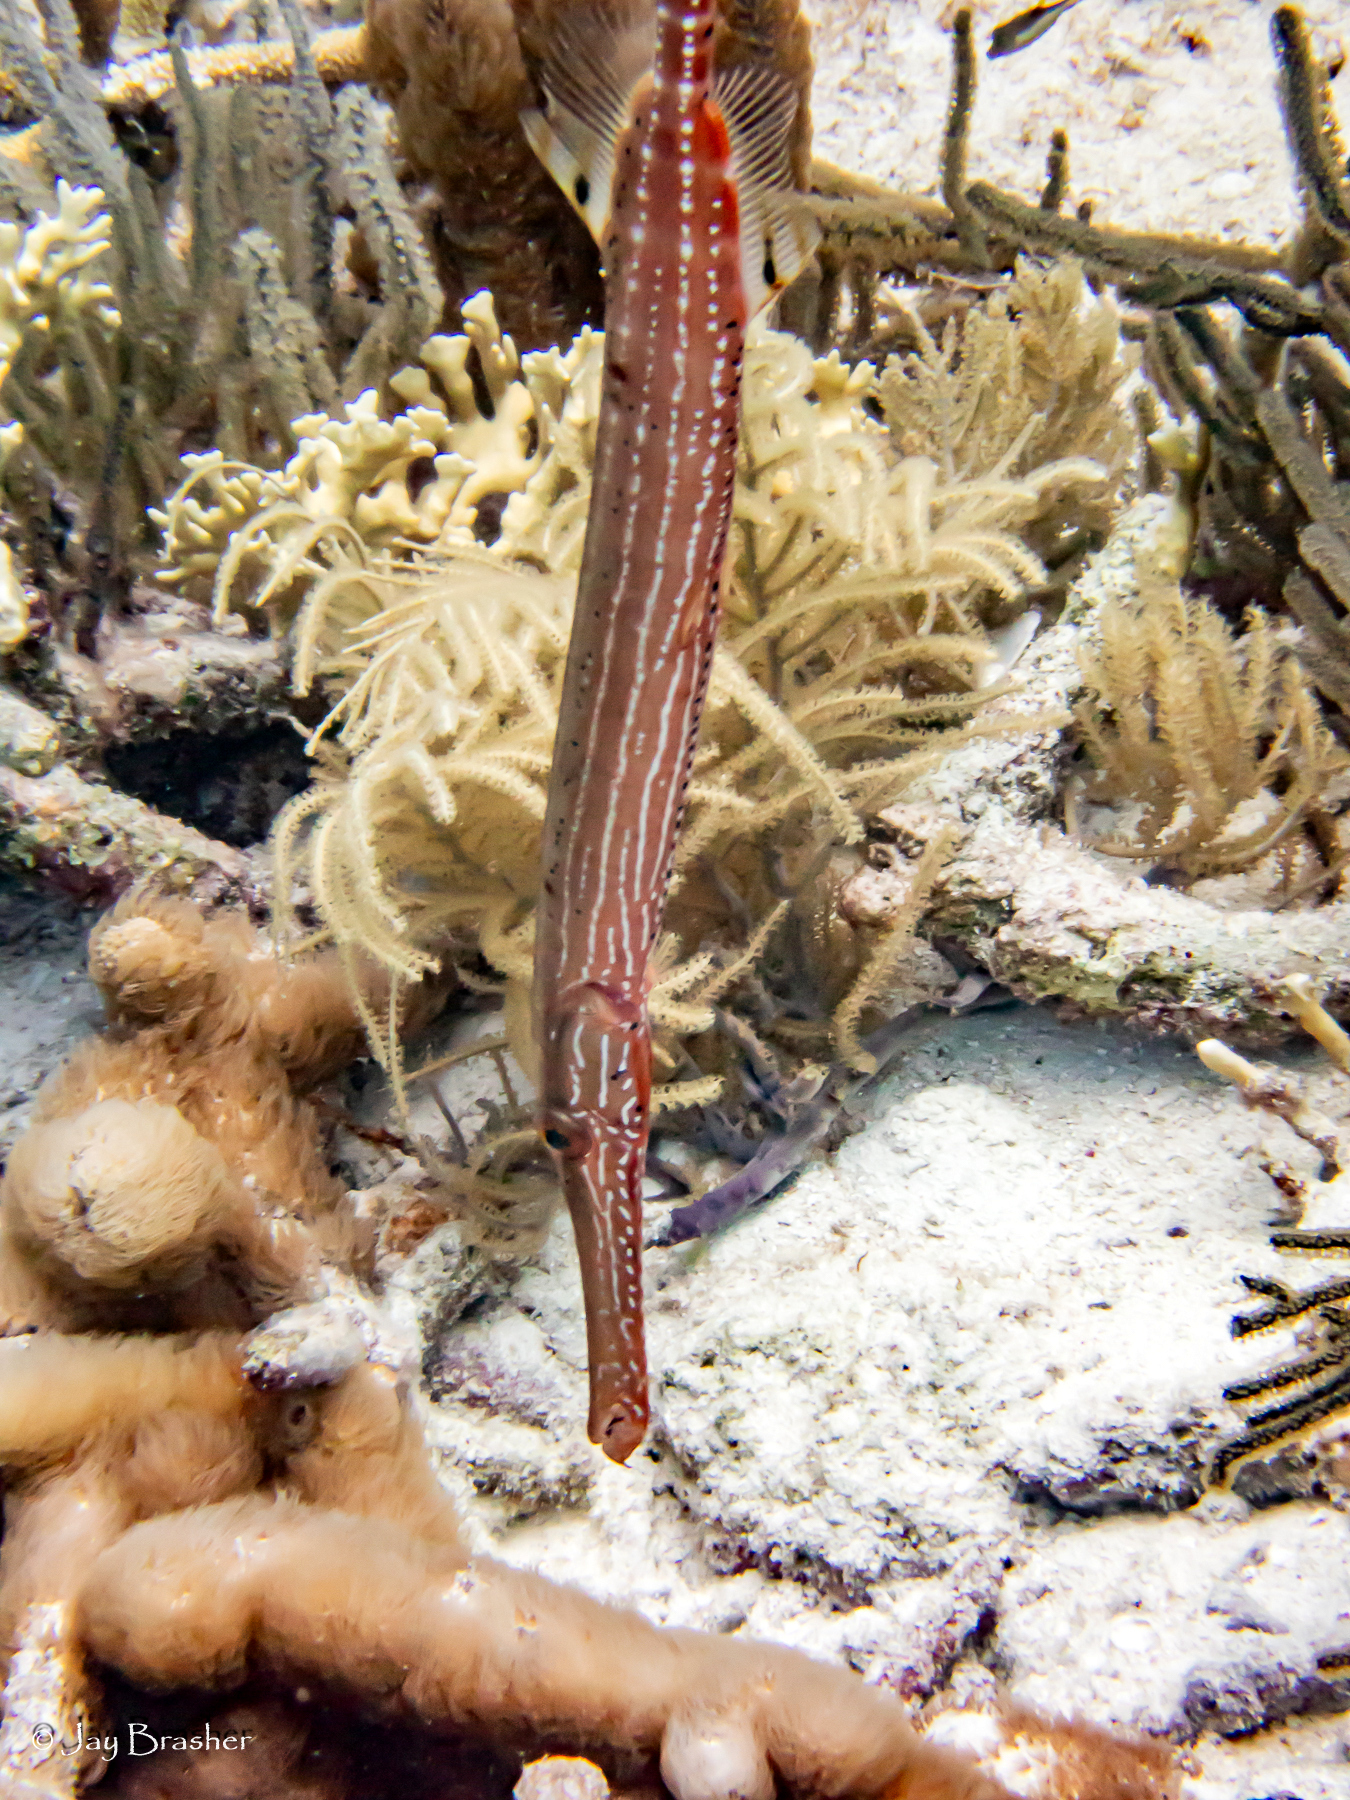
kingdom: Animalia
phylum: Chordata
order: Syngnathiformes
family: Aulostomidae
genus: Aulostomus
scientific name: Aulostomus maculatus
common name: West atlantic trumpetfish
